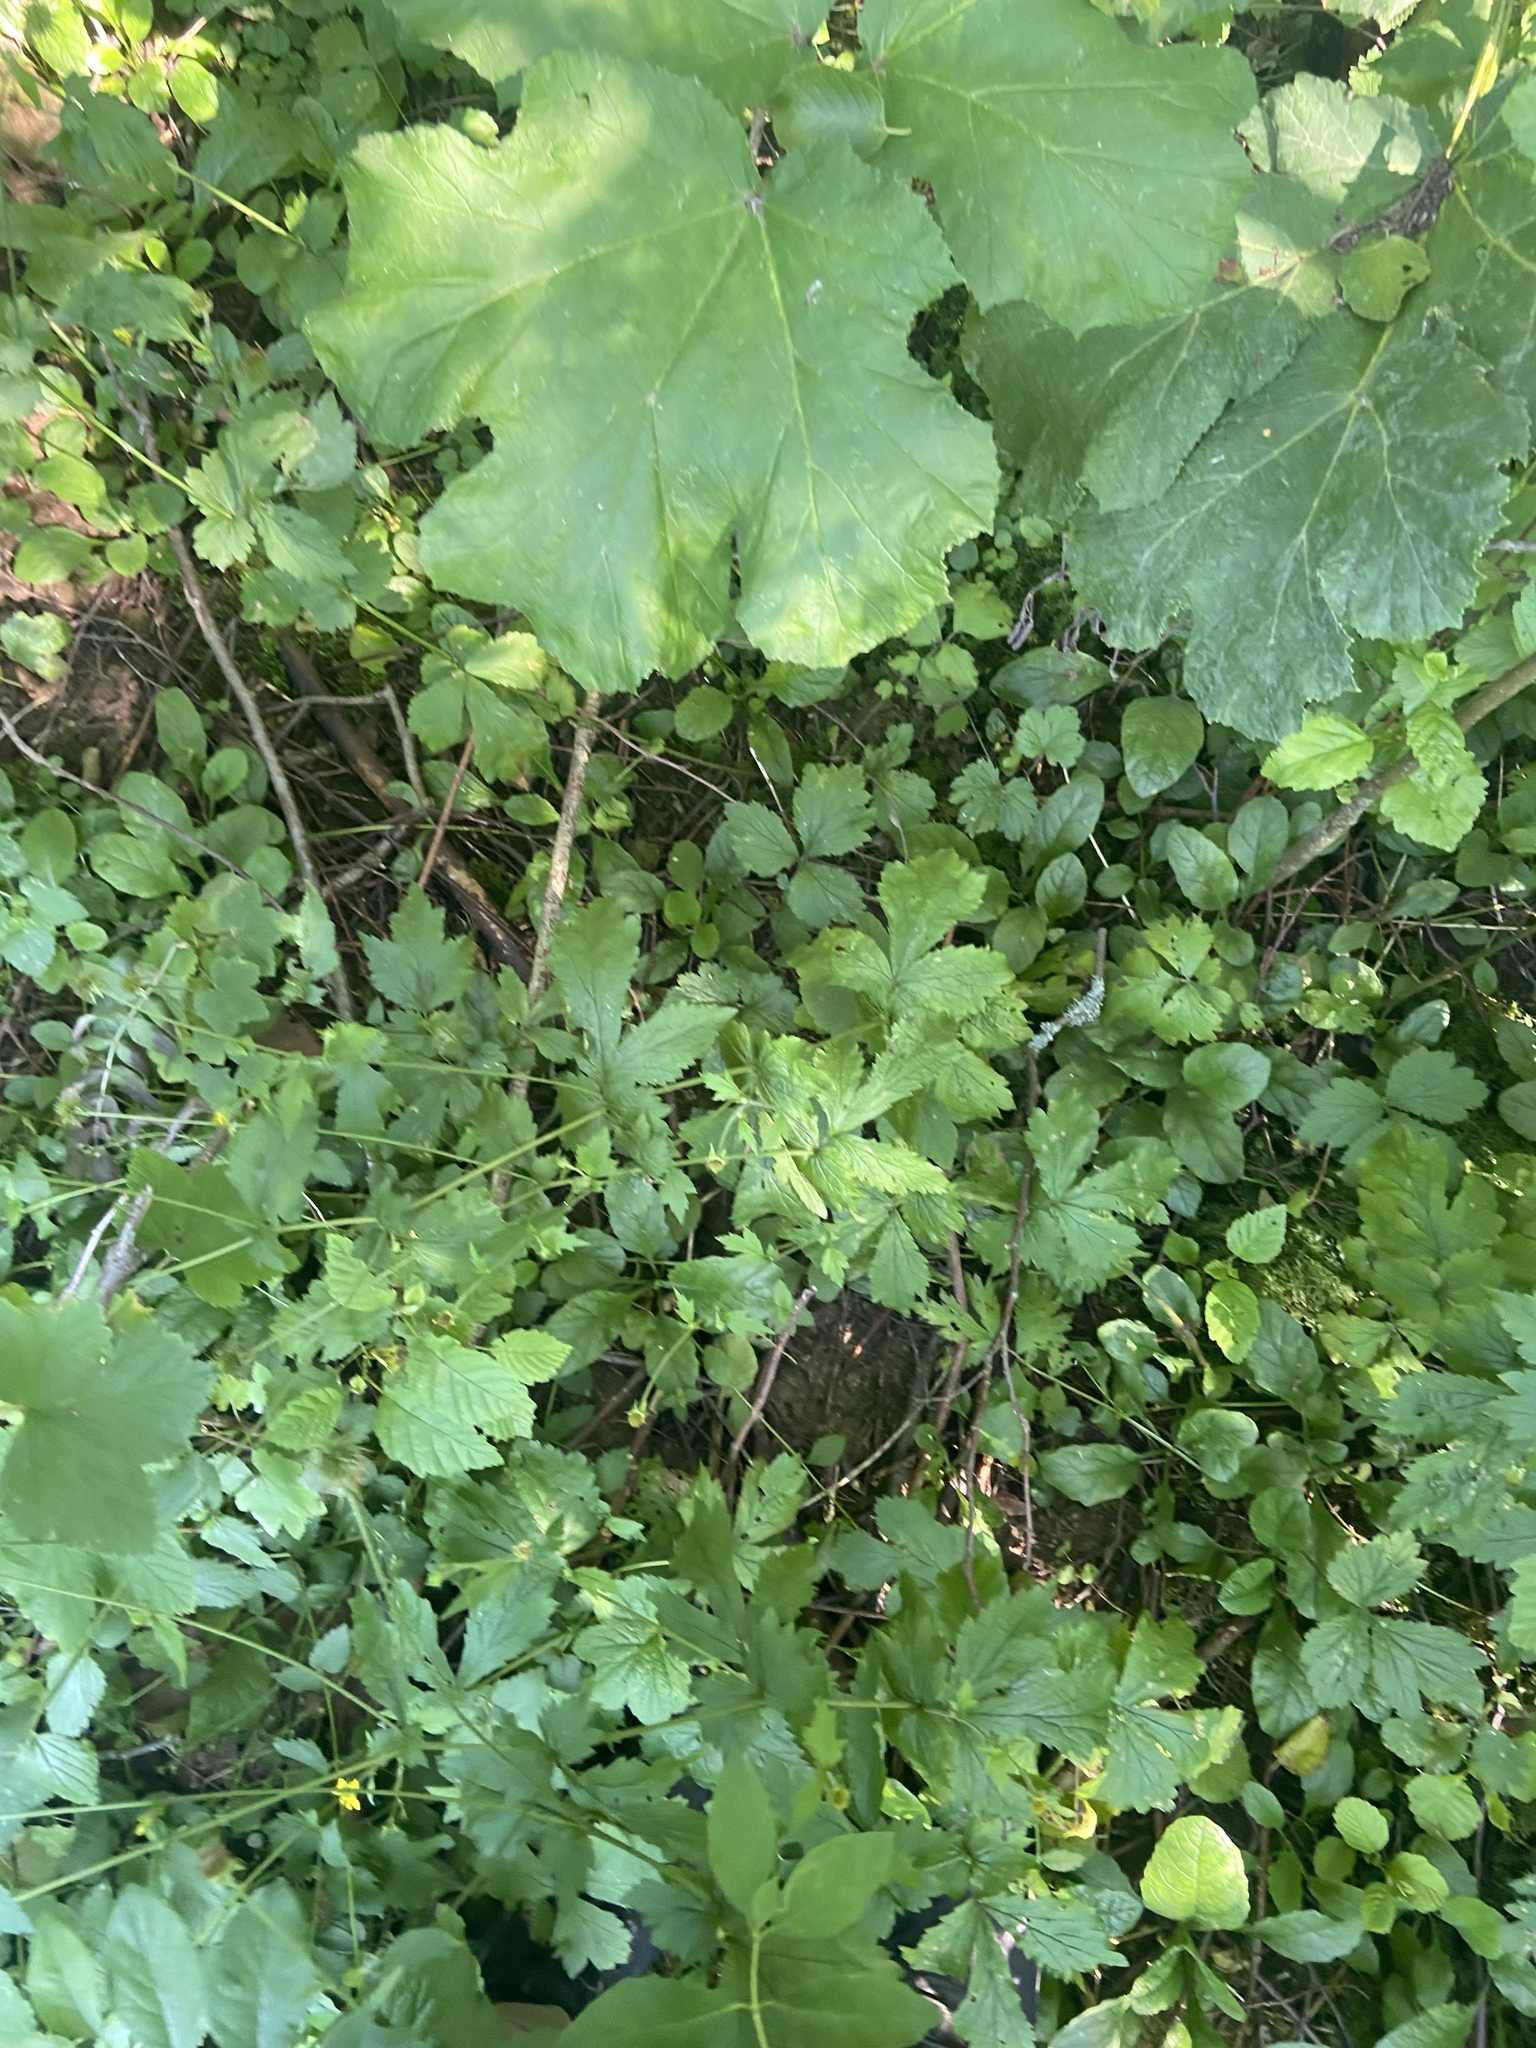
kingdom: Plantae
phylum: Tracheophyta
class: Magnoliopsida
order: Rosales
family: Rosaceae
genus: Geum
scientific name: Geum urbanum
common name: Wood avens
